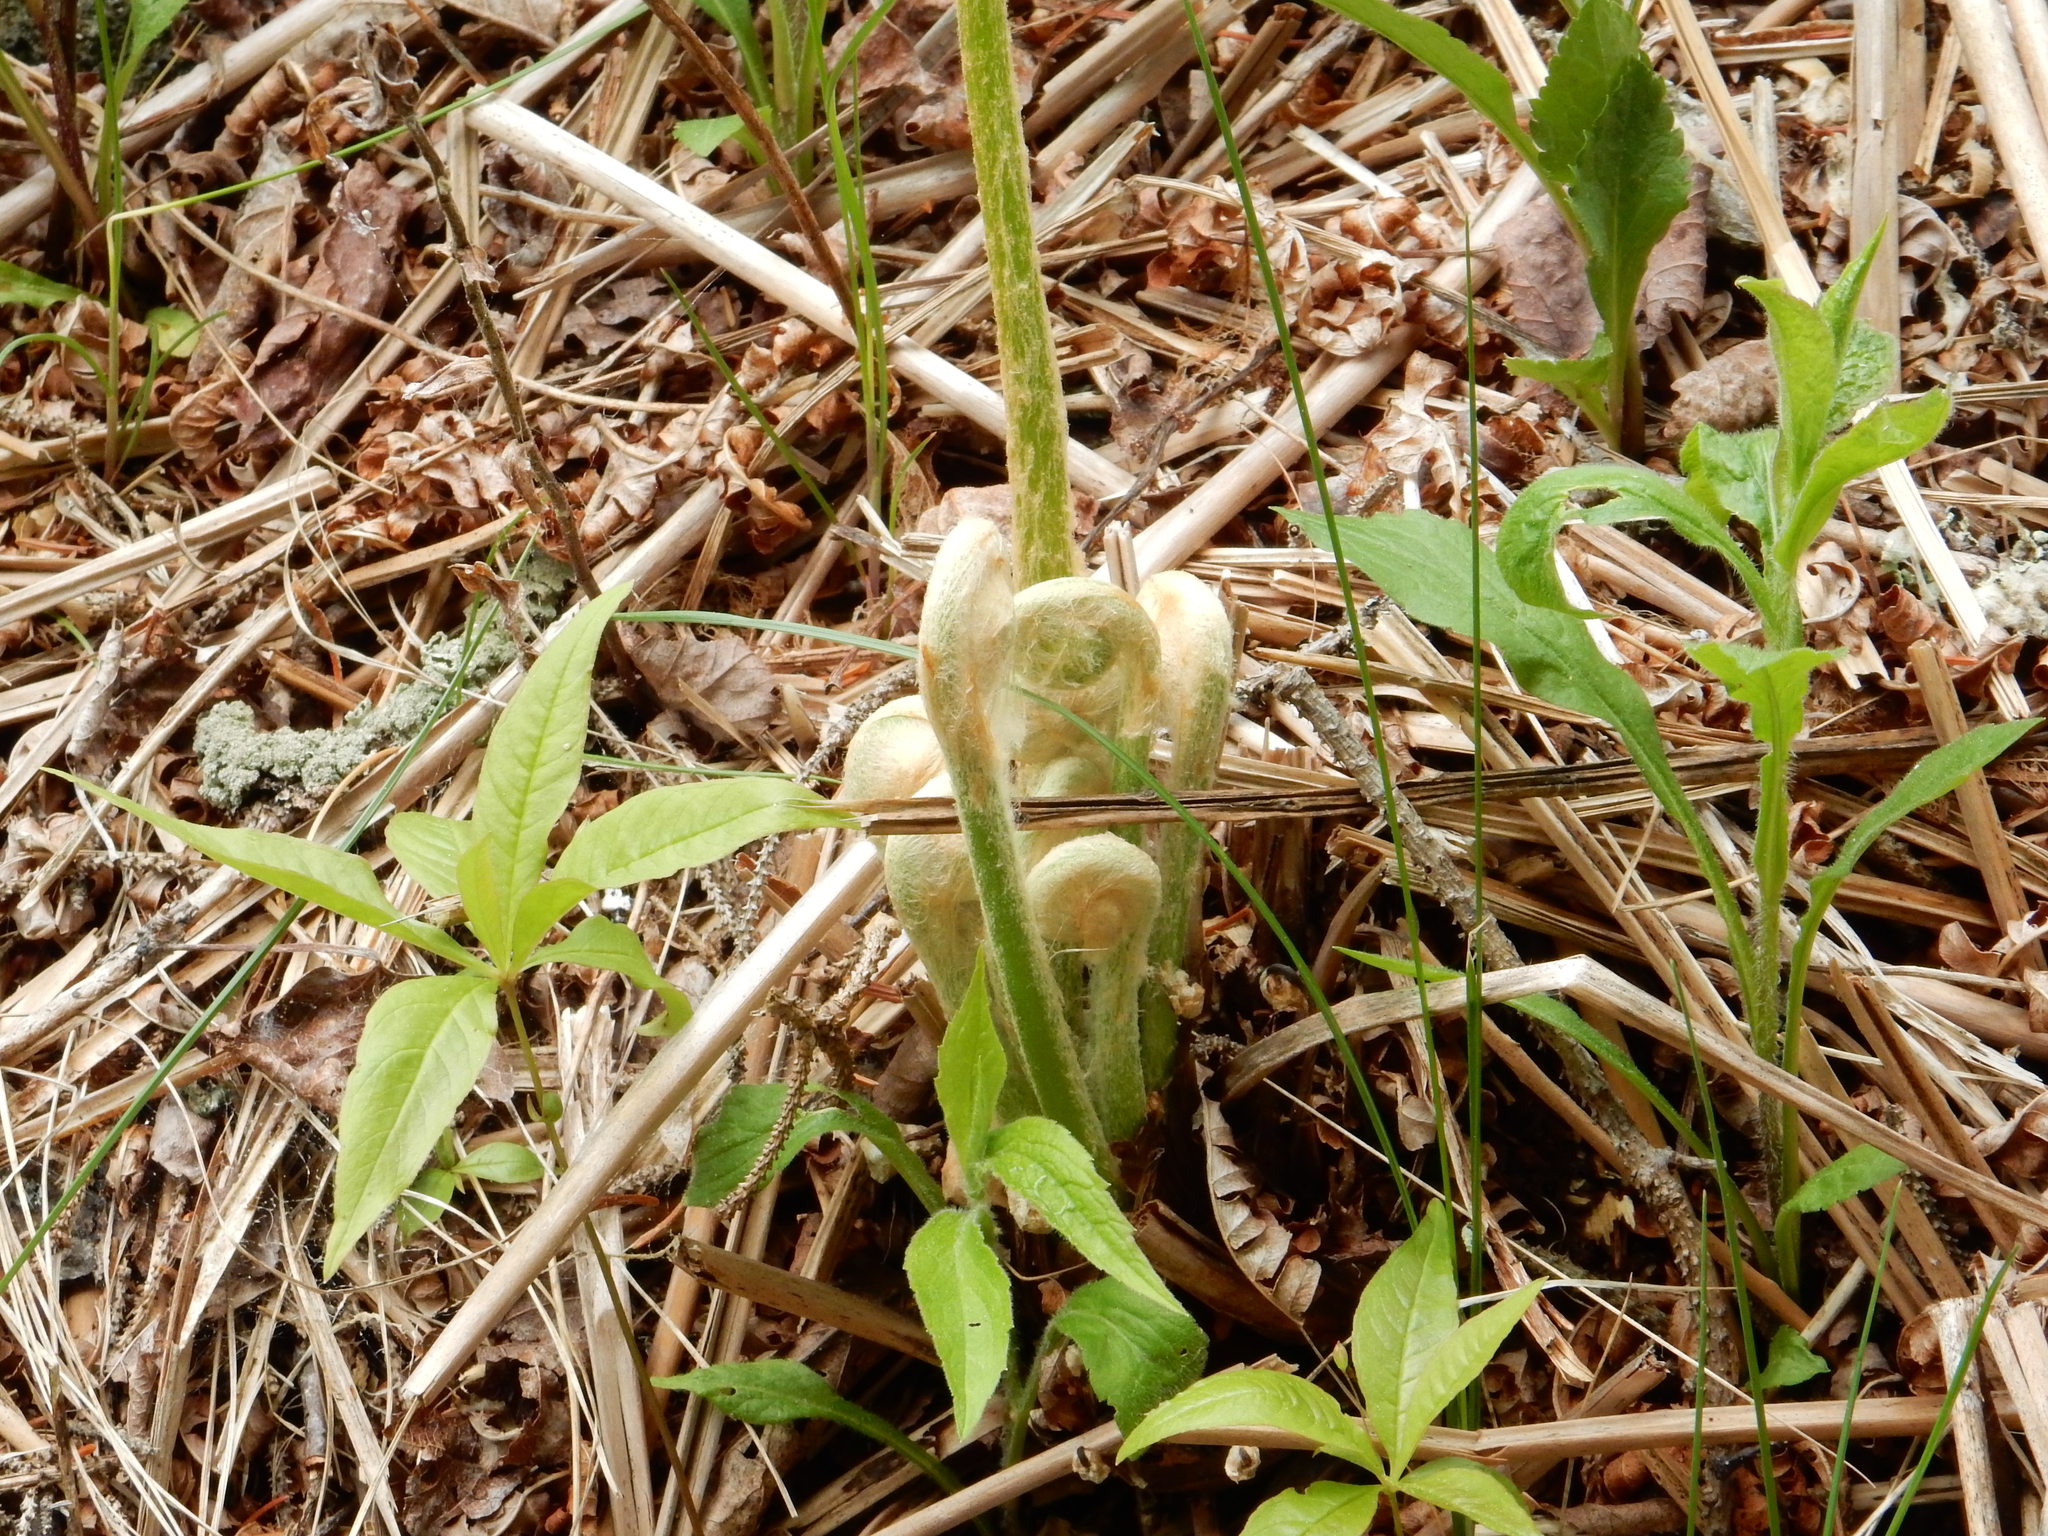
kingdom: Plantae
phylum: Tracheophyta
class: Polypodiopsida
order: Osmundales
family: Osmundaceae
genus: Osmundastrum
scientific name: Osmundastrum cinnamomeum
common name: Cinnamon fern
